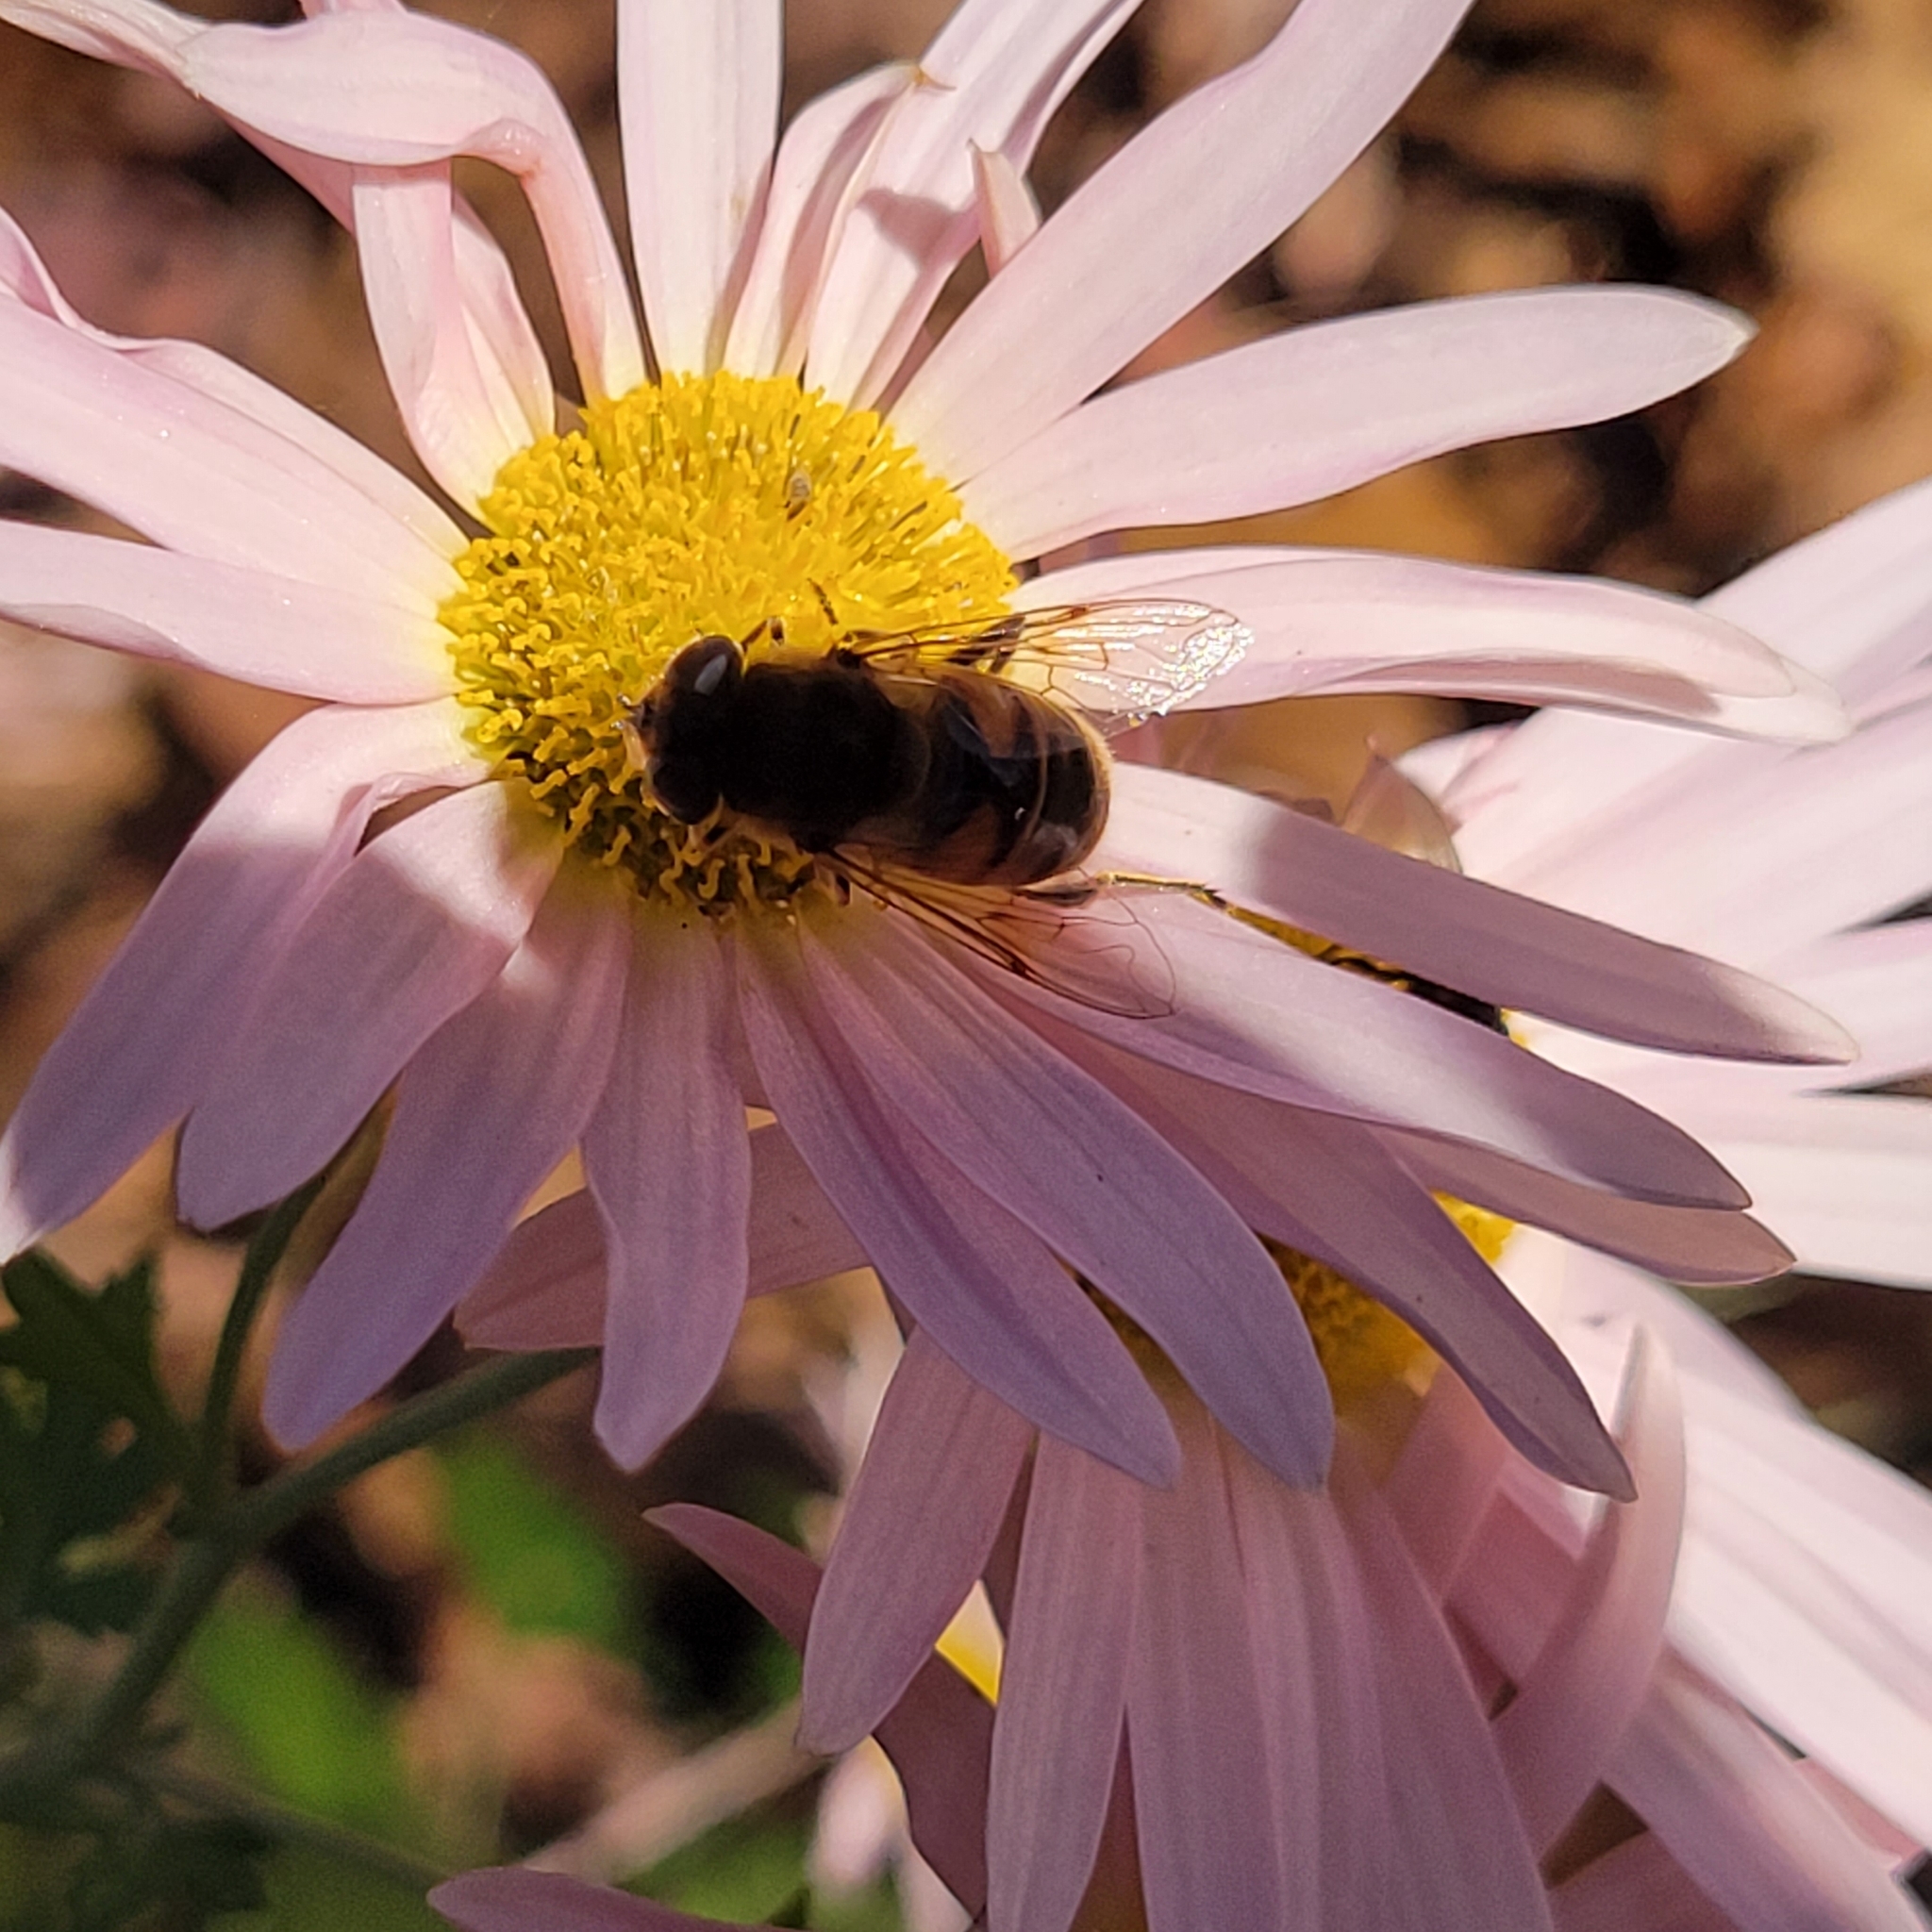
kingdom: Animalia
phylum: Arthropoda
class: Insecta
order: Diptera
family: Syrphidae
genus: Eristalis
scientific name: Eristalis tenax
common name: Drone fly
